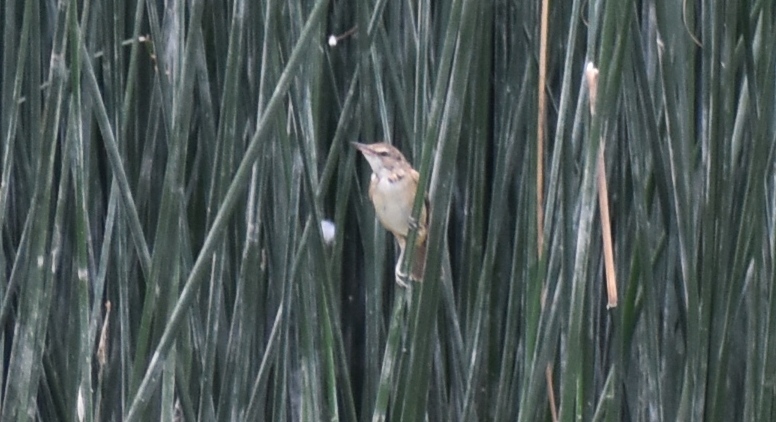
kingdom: Animalia
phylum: Chordata
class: Aves
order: Passeriformes
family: Acrocephalidae
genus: Acrocephalus
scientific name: Acrocephalus arundinaceus
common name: Great reed warbler
